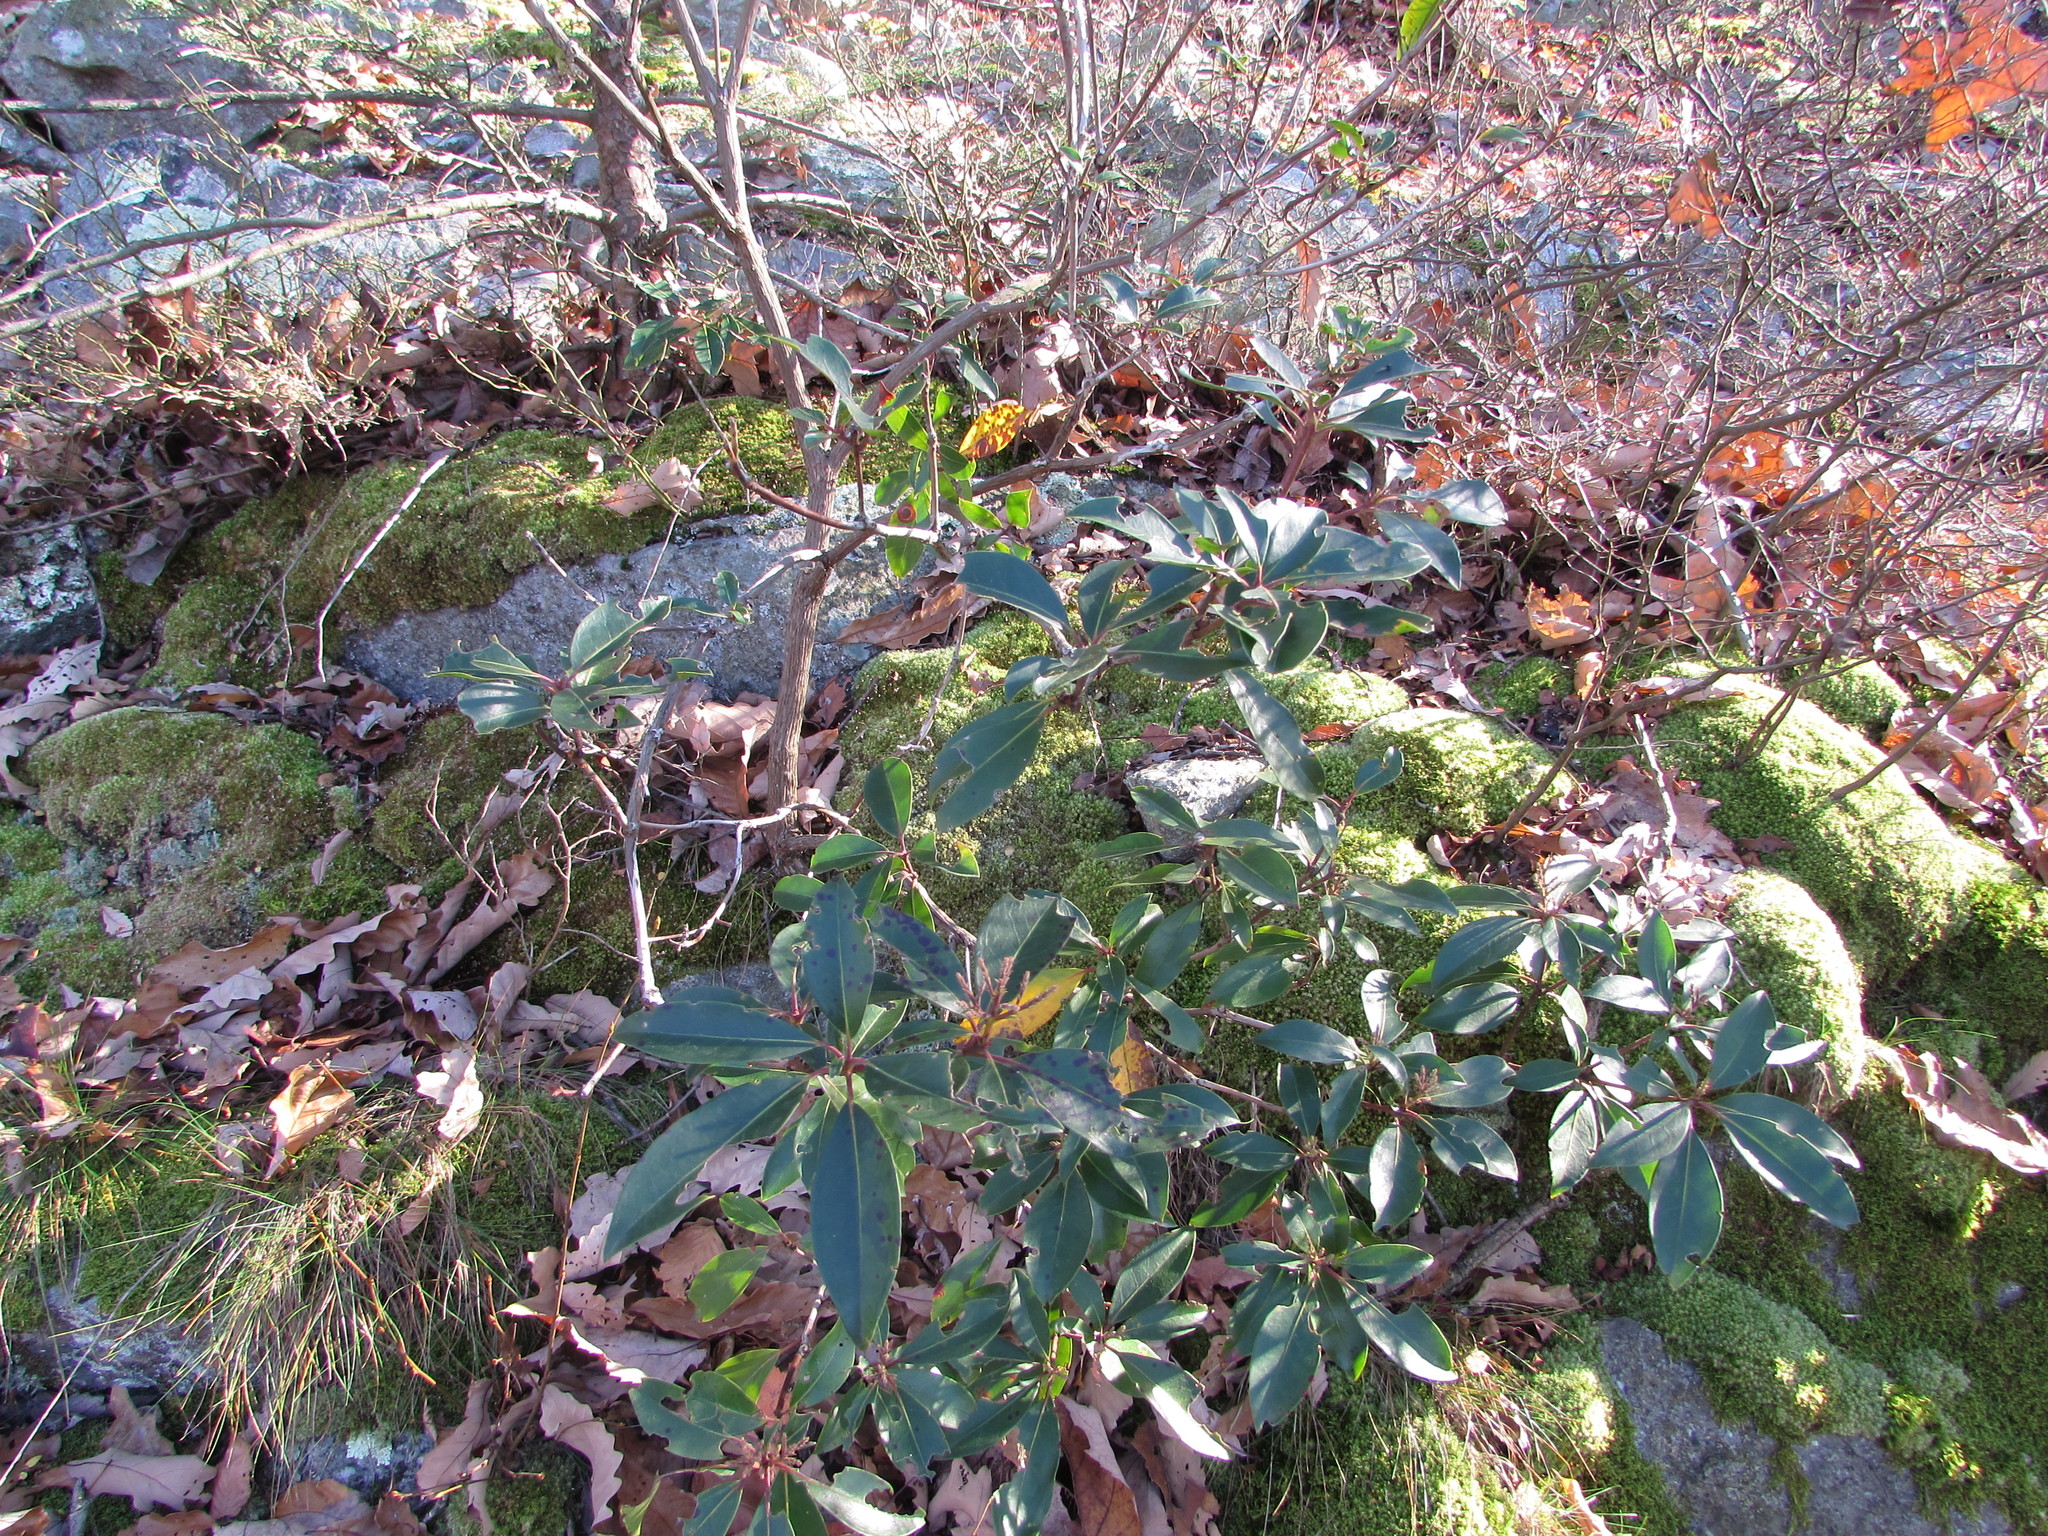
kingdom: Plantae
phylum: Tracheophyta
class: Magnoliopsida
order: Ericales
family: Ericaceae
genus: Kalmia
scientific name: Kalmia latifolia
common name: Mountain-laurel
